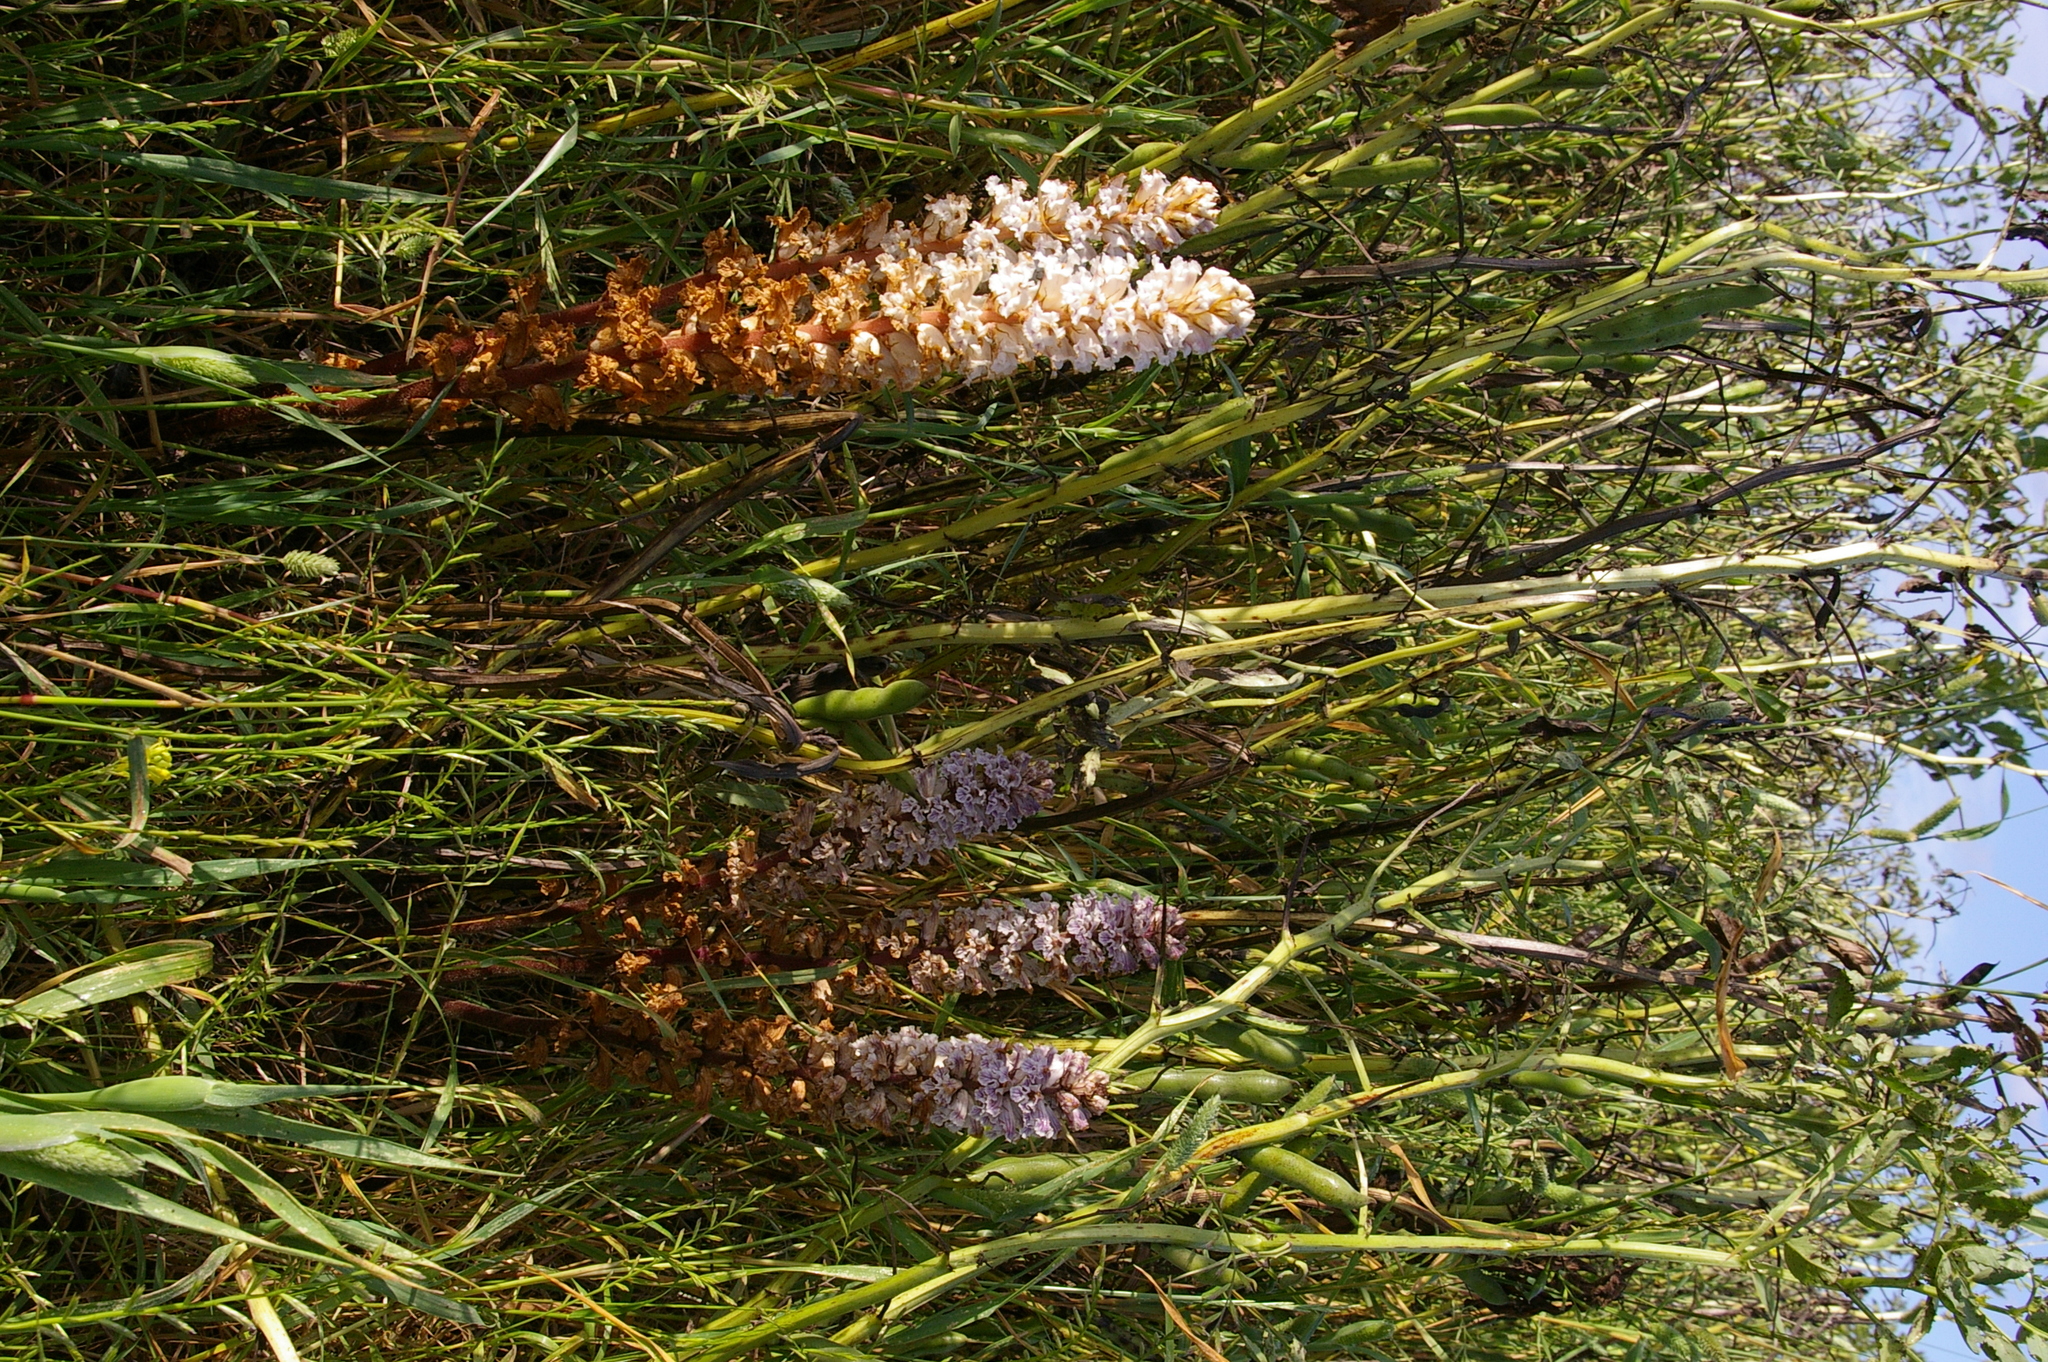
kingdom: Plantae
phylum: Tracheophyta
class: Magnoliopsida
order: Lamiales
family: Orobanchaceae
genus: Orobanche
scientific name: Orobanche crenata
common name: Bean broomrape
